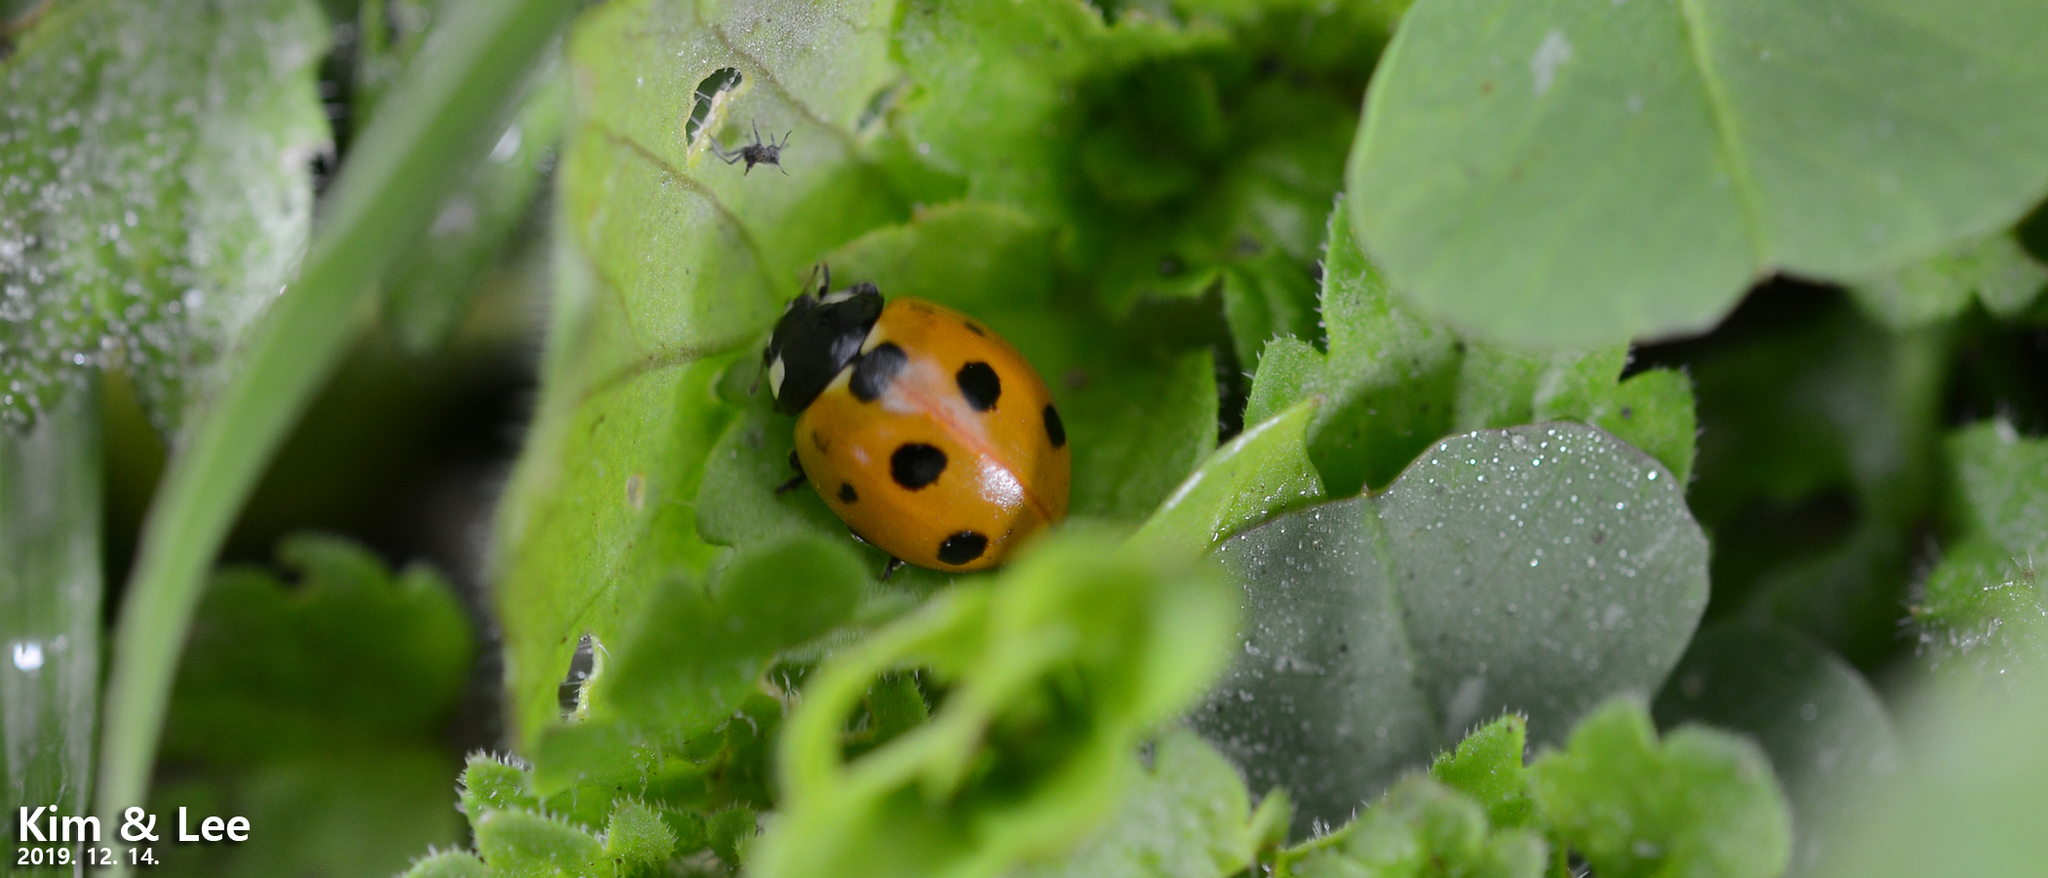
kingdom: Animalia
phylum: Arthropoda
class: Insecta
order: Coleoptera
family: Coccinellidae
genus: Coccinella
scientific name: Coccinella septempunctata
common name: Sevenspotted lady beetle
